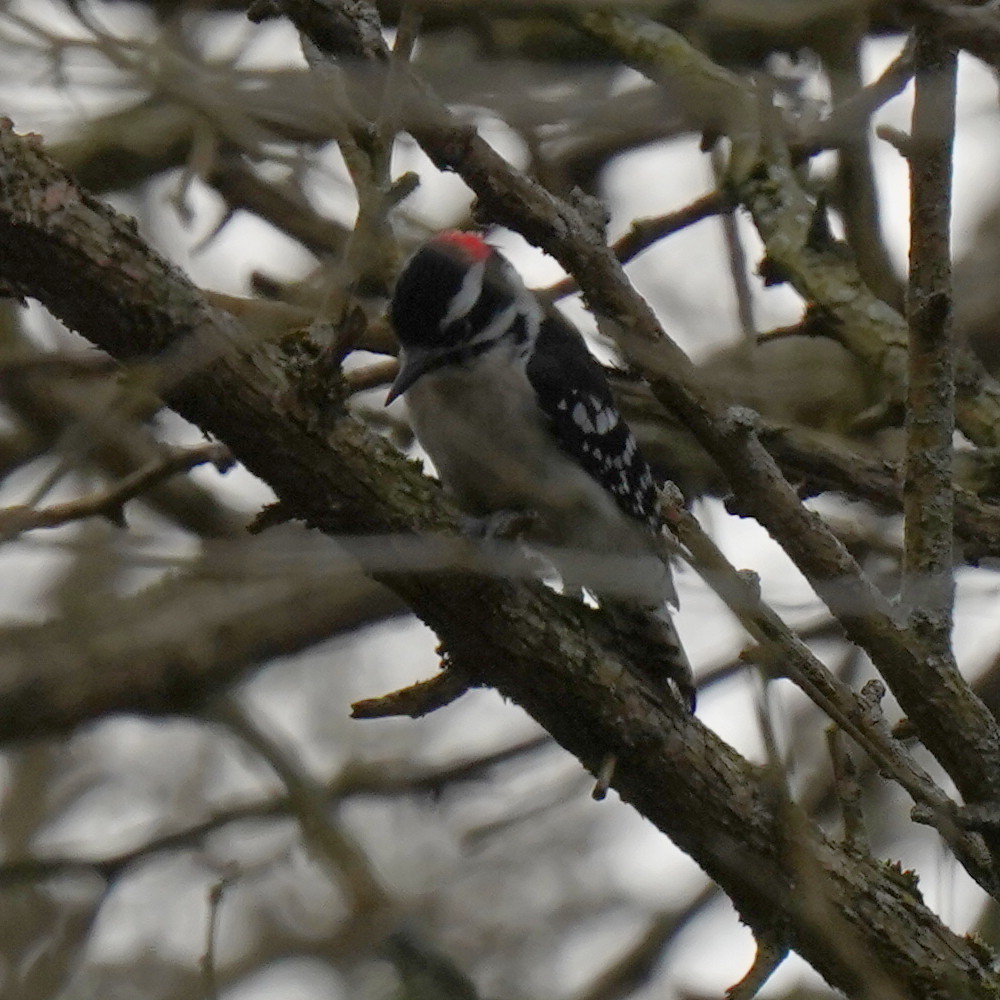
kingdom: Animalia
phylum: Chordata
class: Aves
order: Piciformes
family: Picidae
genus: Dryobates
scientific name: Dryobates pubescens
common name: Downy woodpecker
